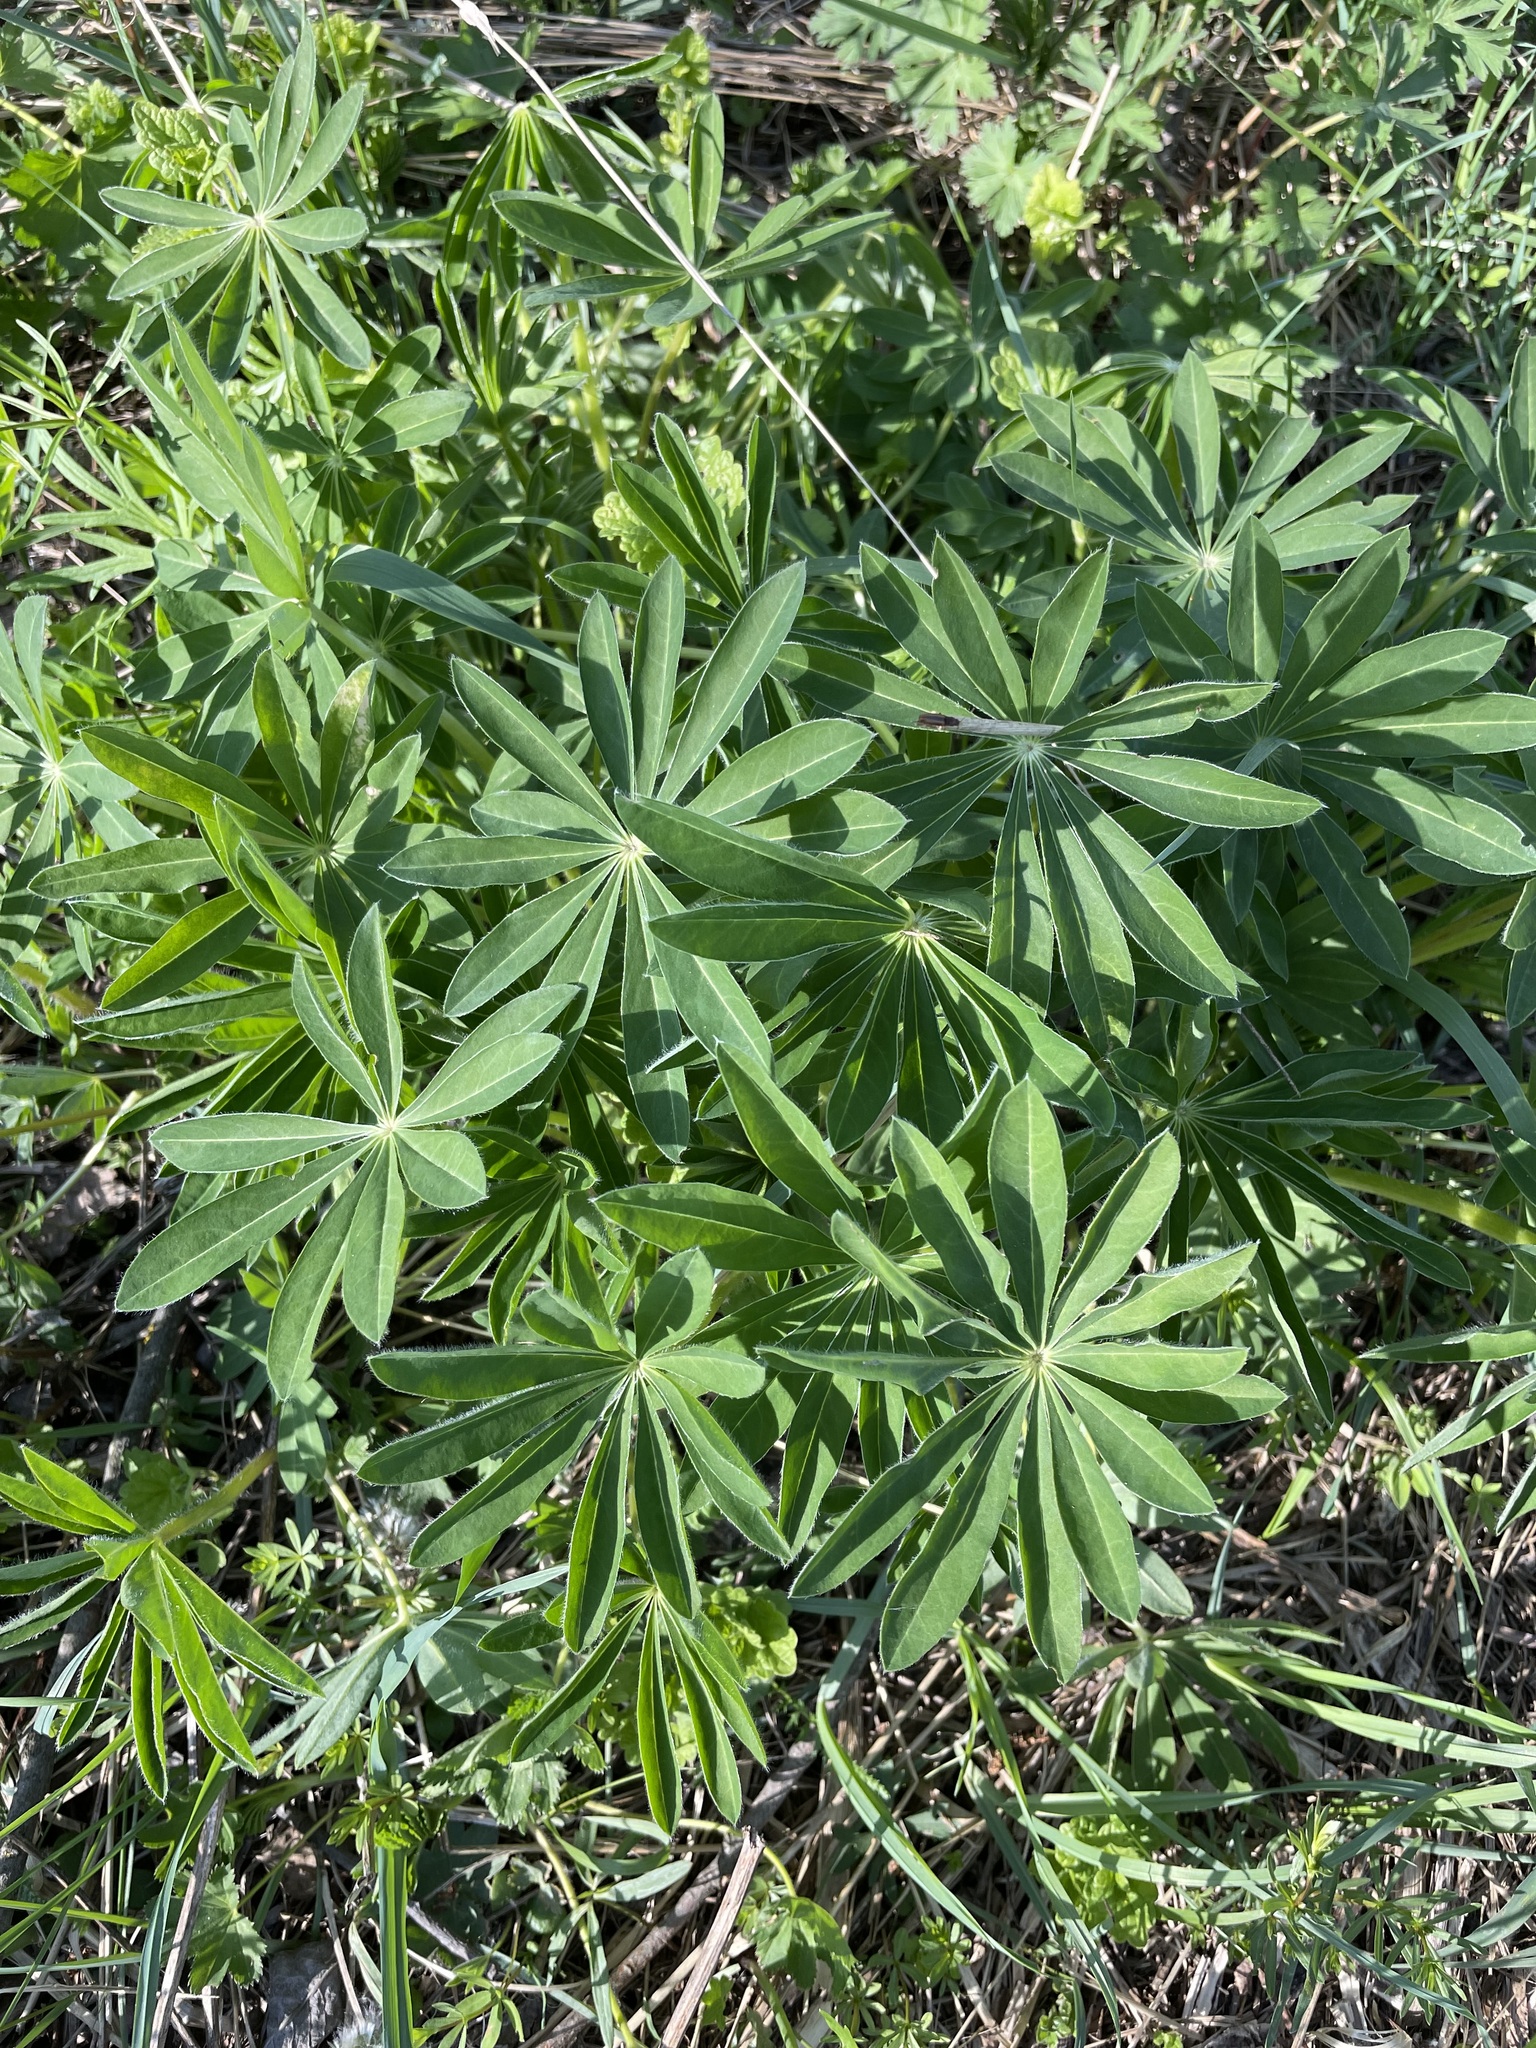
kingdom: Plantae
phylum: Tracheophyta
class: Magnoliopsida
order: Fabales
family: Fabaceae
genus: Lupinus
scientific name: Lupinus polyphyllus
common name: Garden lupin
